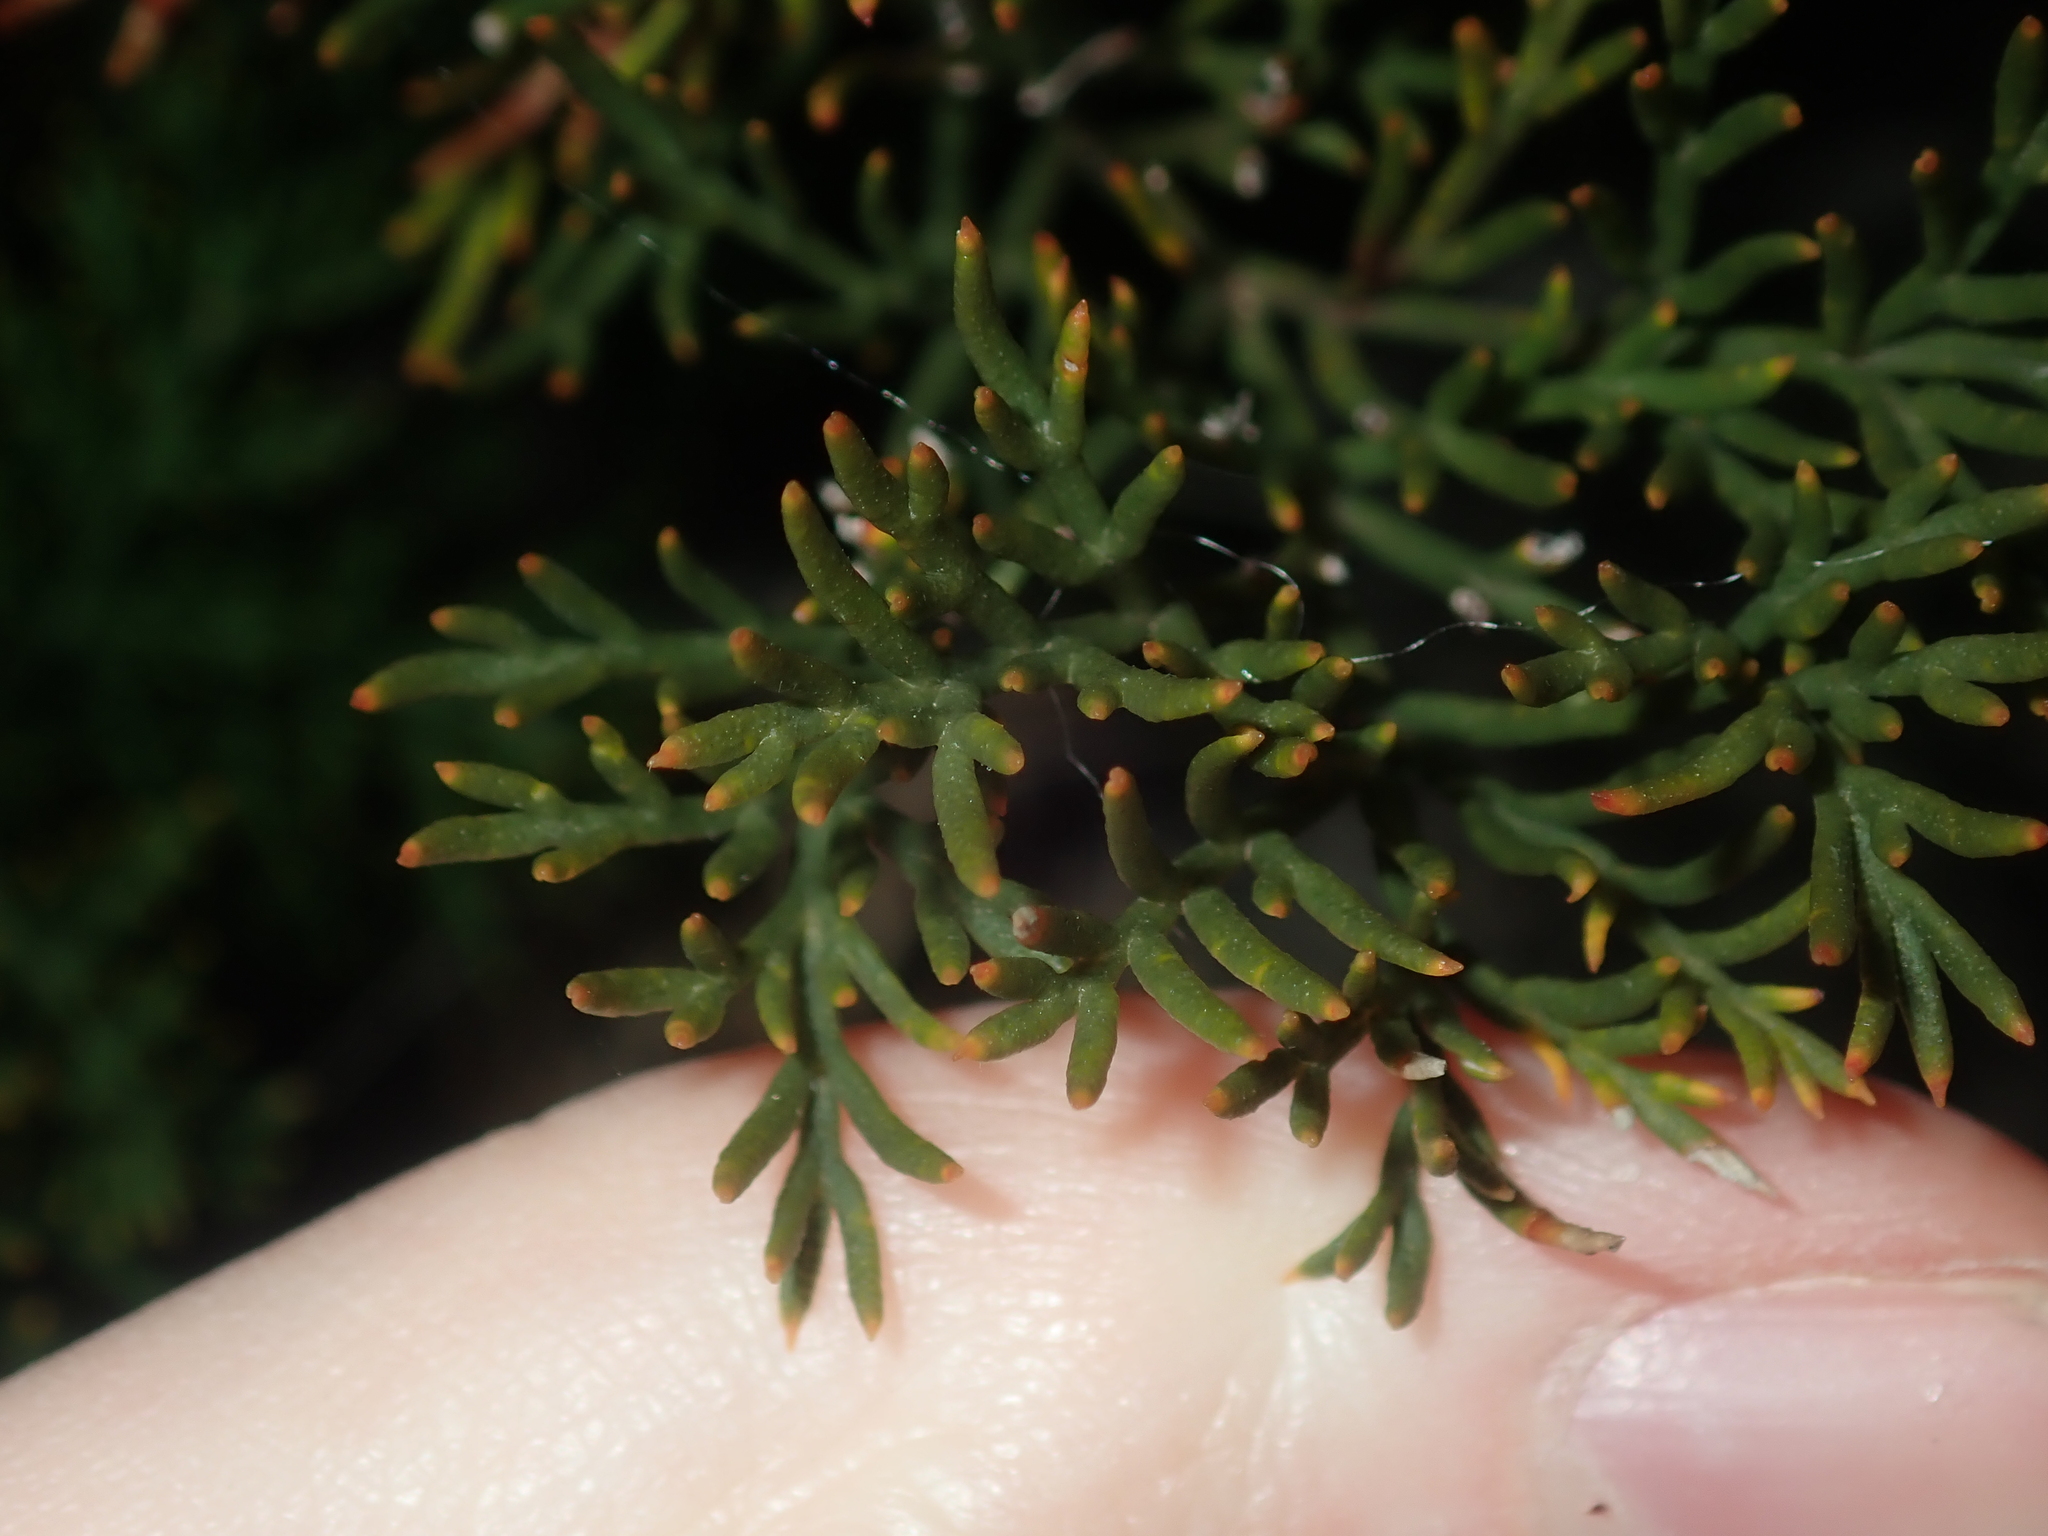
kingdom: Plantae
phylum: Tracheophyta
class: Magnoliopsida
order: Proteales
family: Proteaceae
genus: Banksia
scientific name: Banksia bipinnatifida
